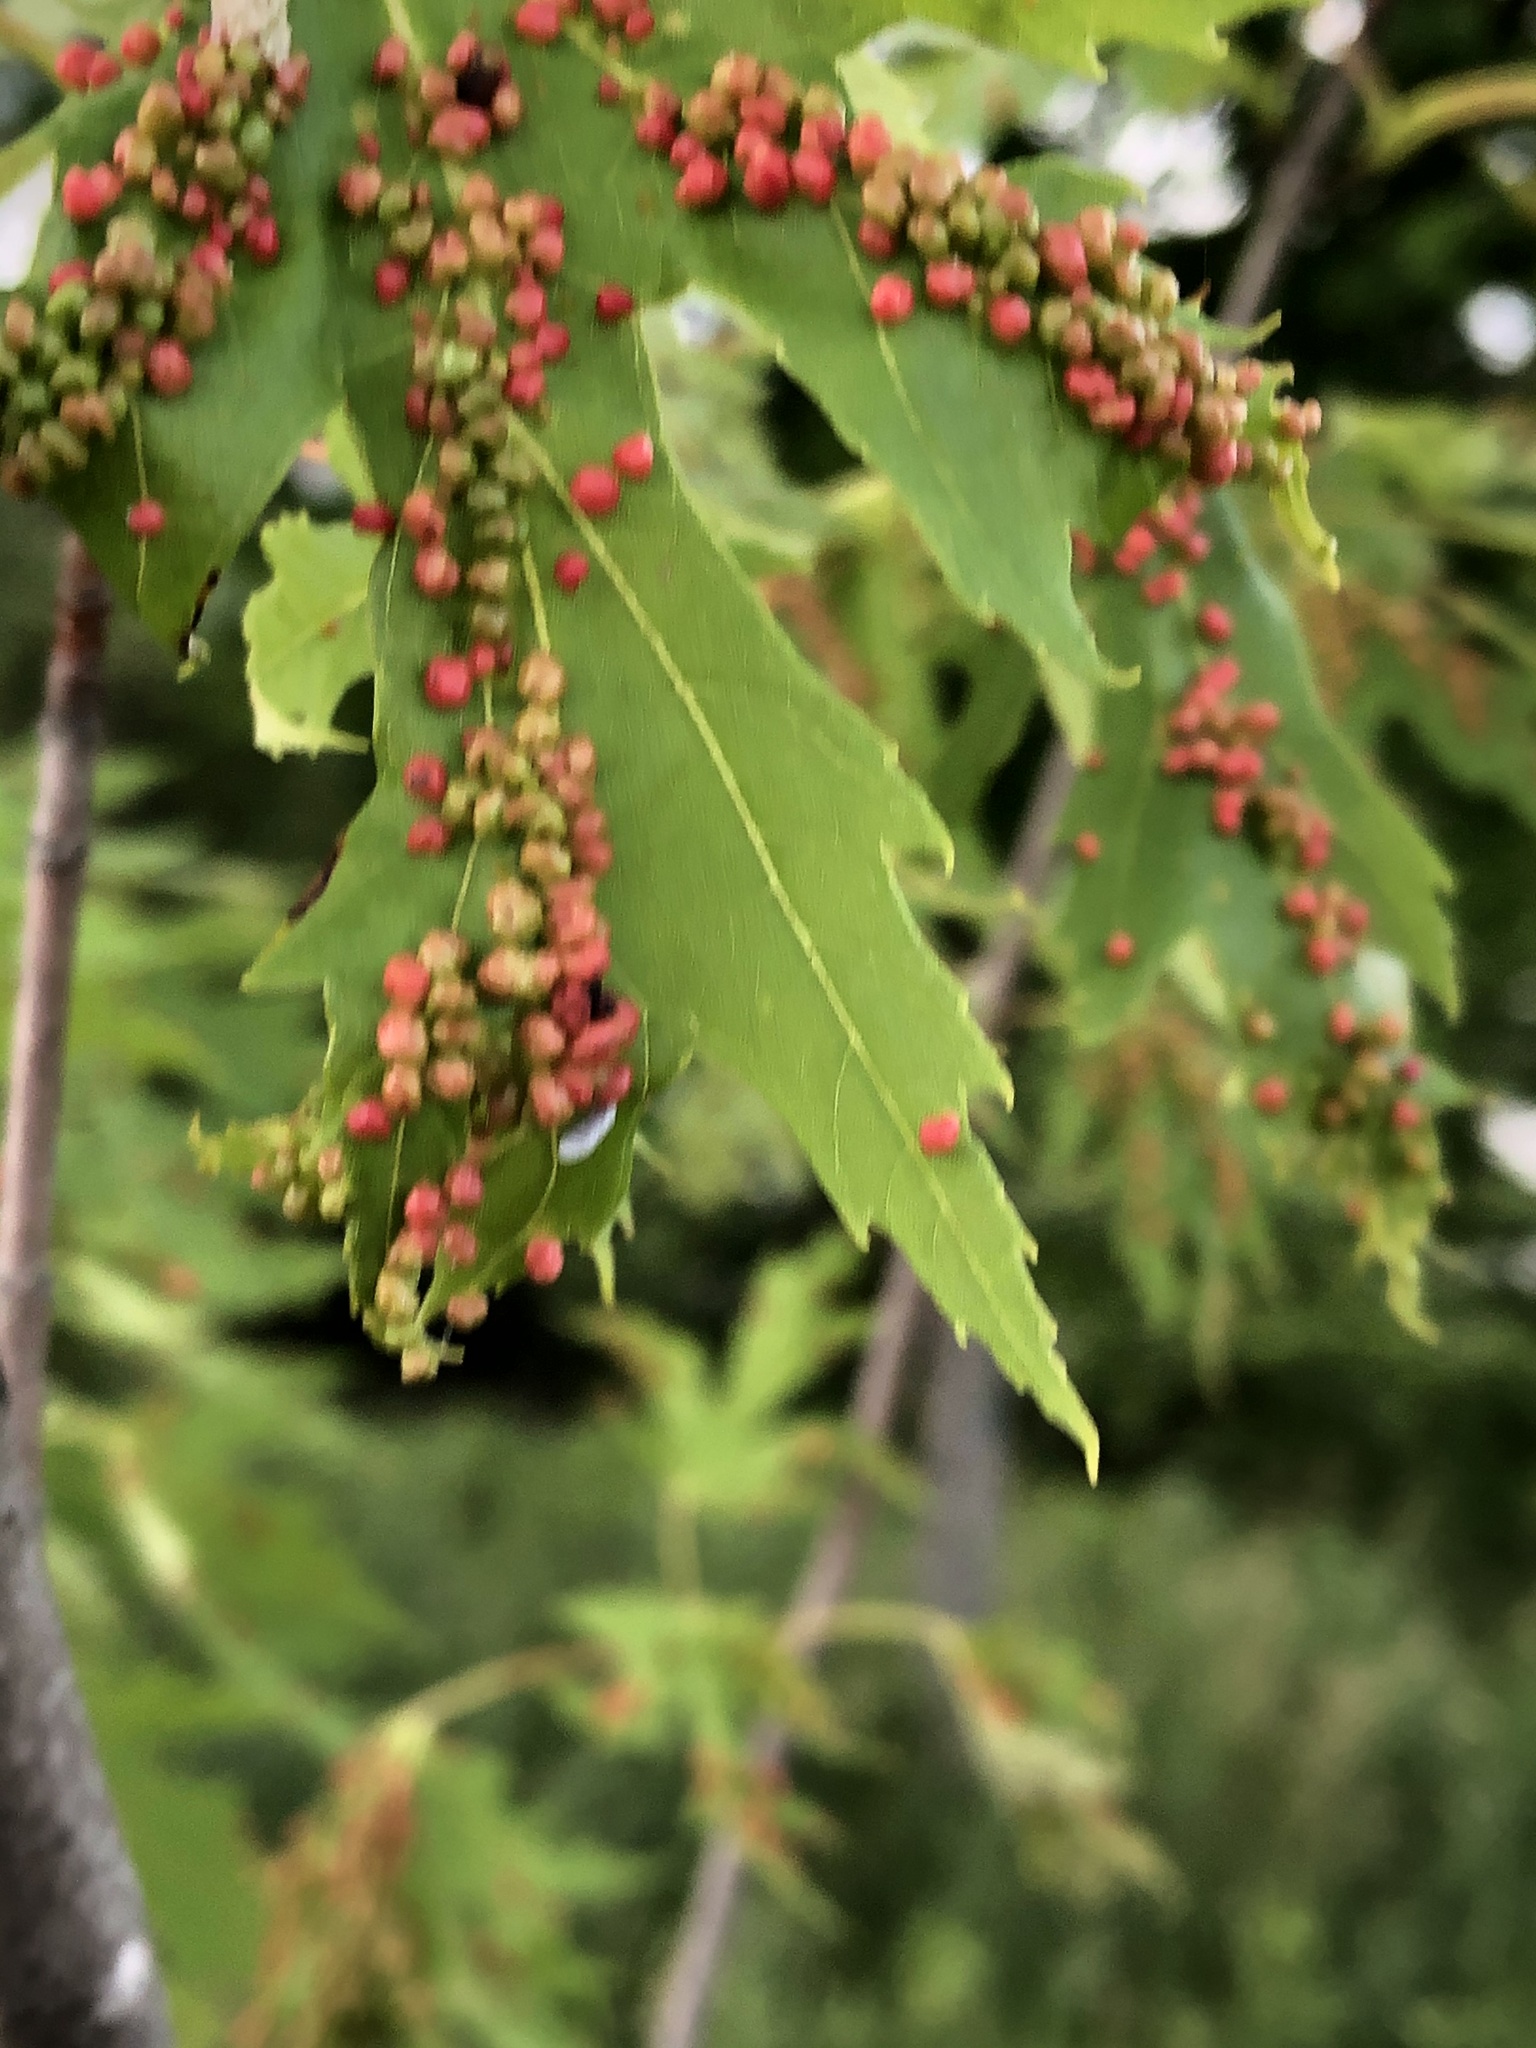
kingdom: Animalia
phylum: Arthropoda
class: Arachnida
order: Trombidiformes
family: Eriophyidae
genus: Vasates
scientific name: Vasates quadripedes
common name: Maple bladder gall mite
